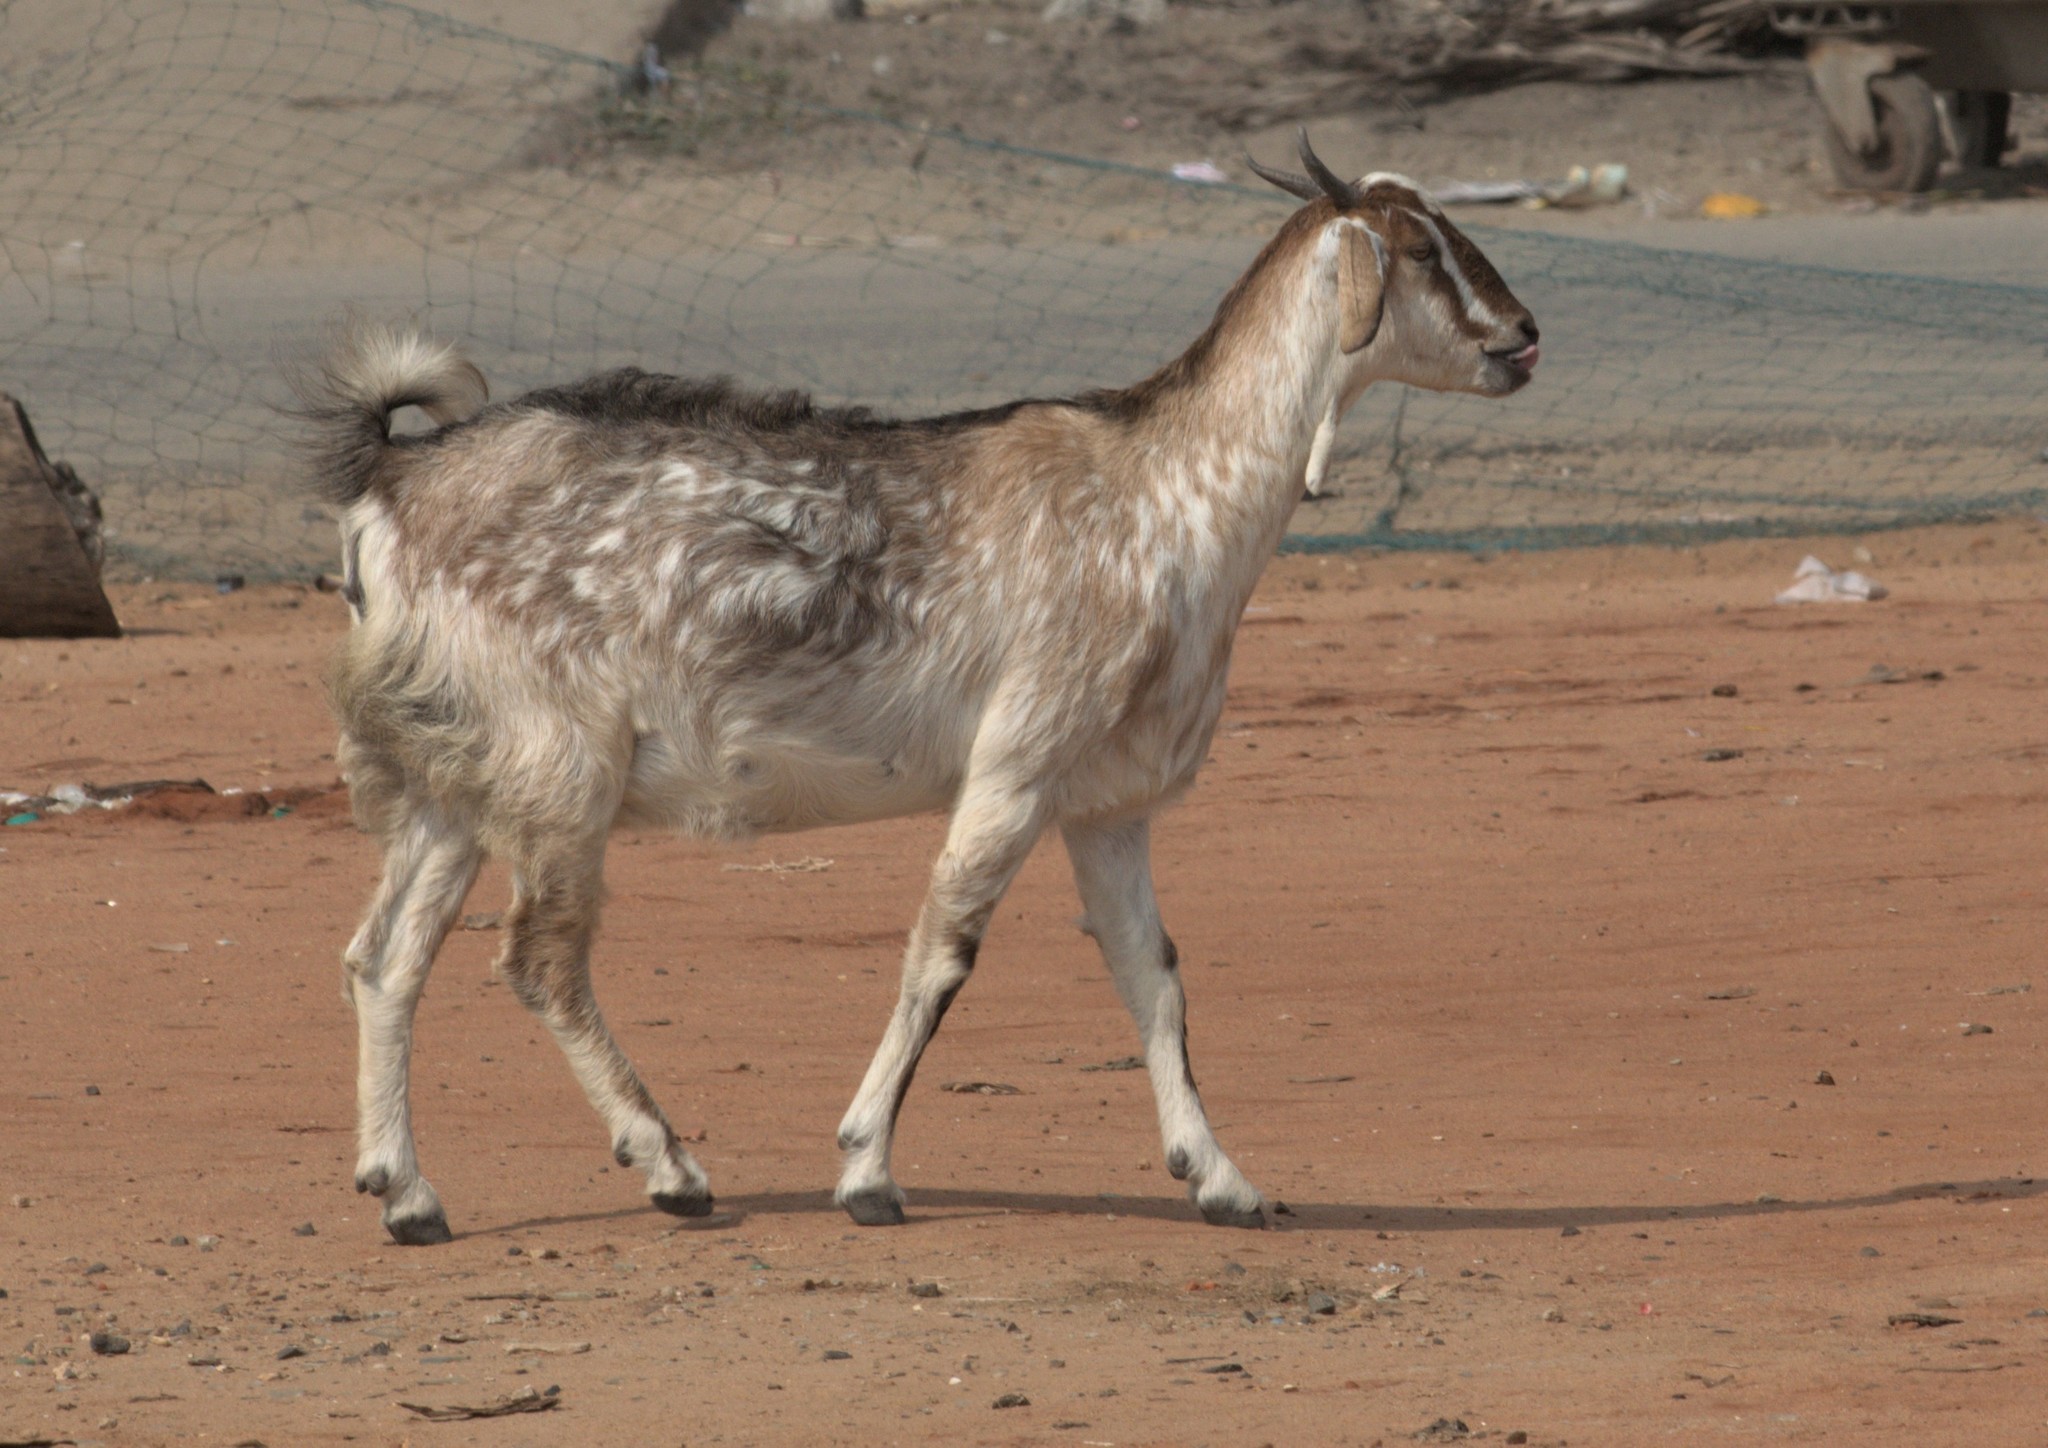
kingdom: Animalia
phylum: Chordata
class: Mammalia
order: Artiodactyla
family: Bovidae
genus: Capra
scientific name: Capra hircus
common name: Domestic goat
